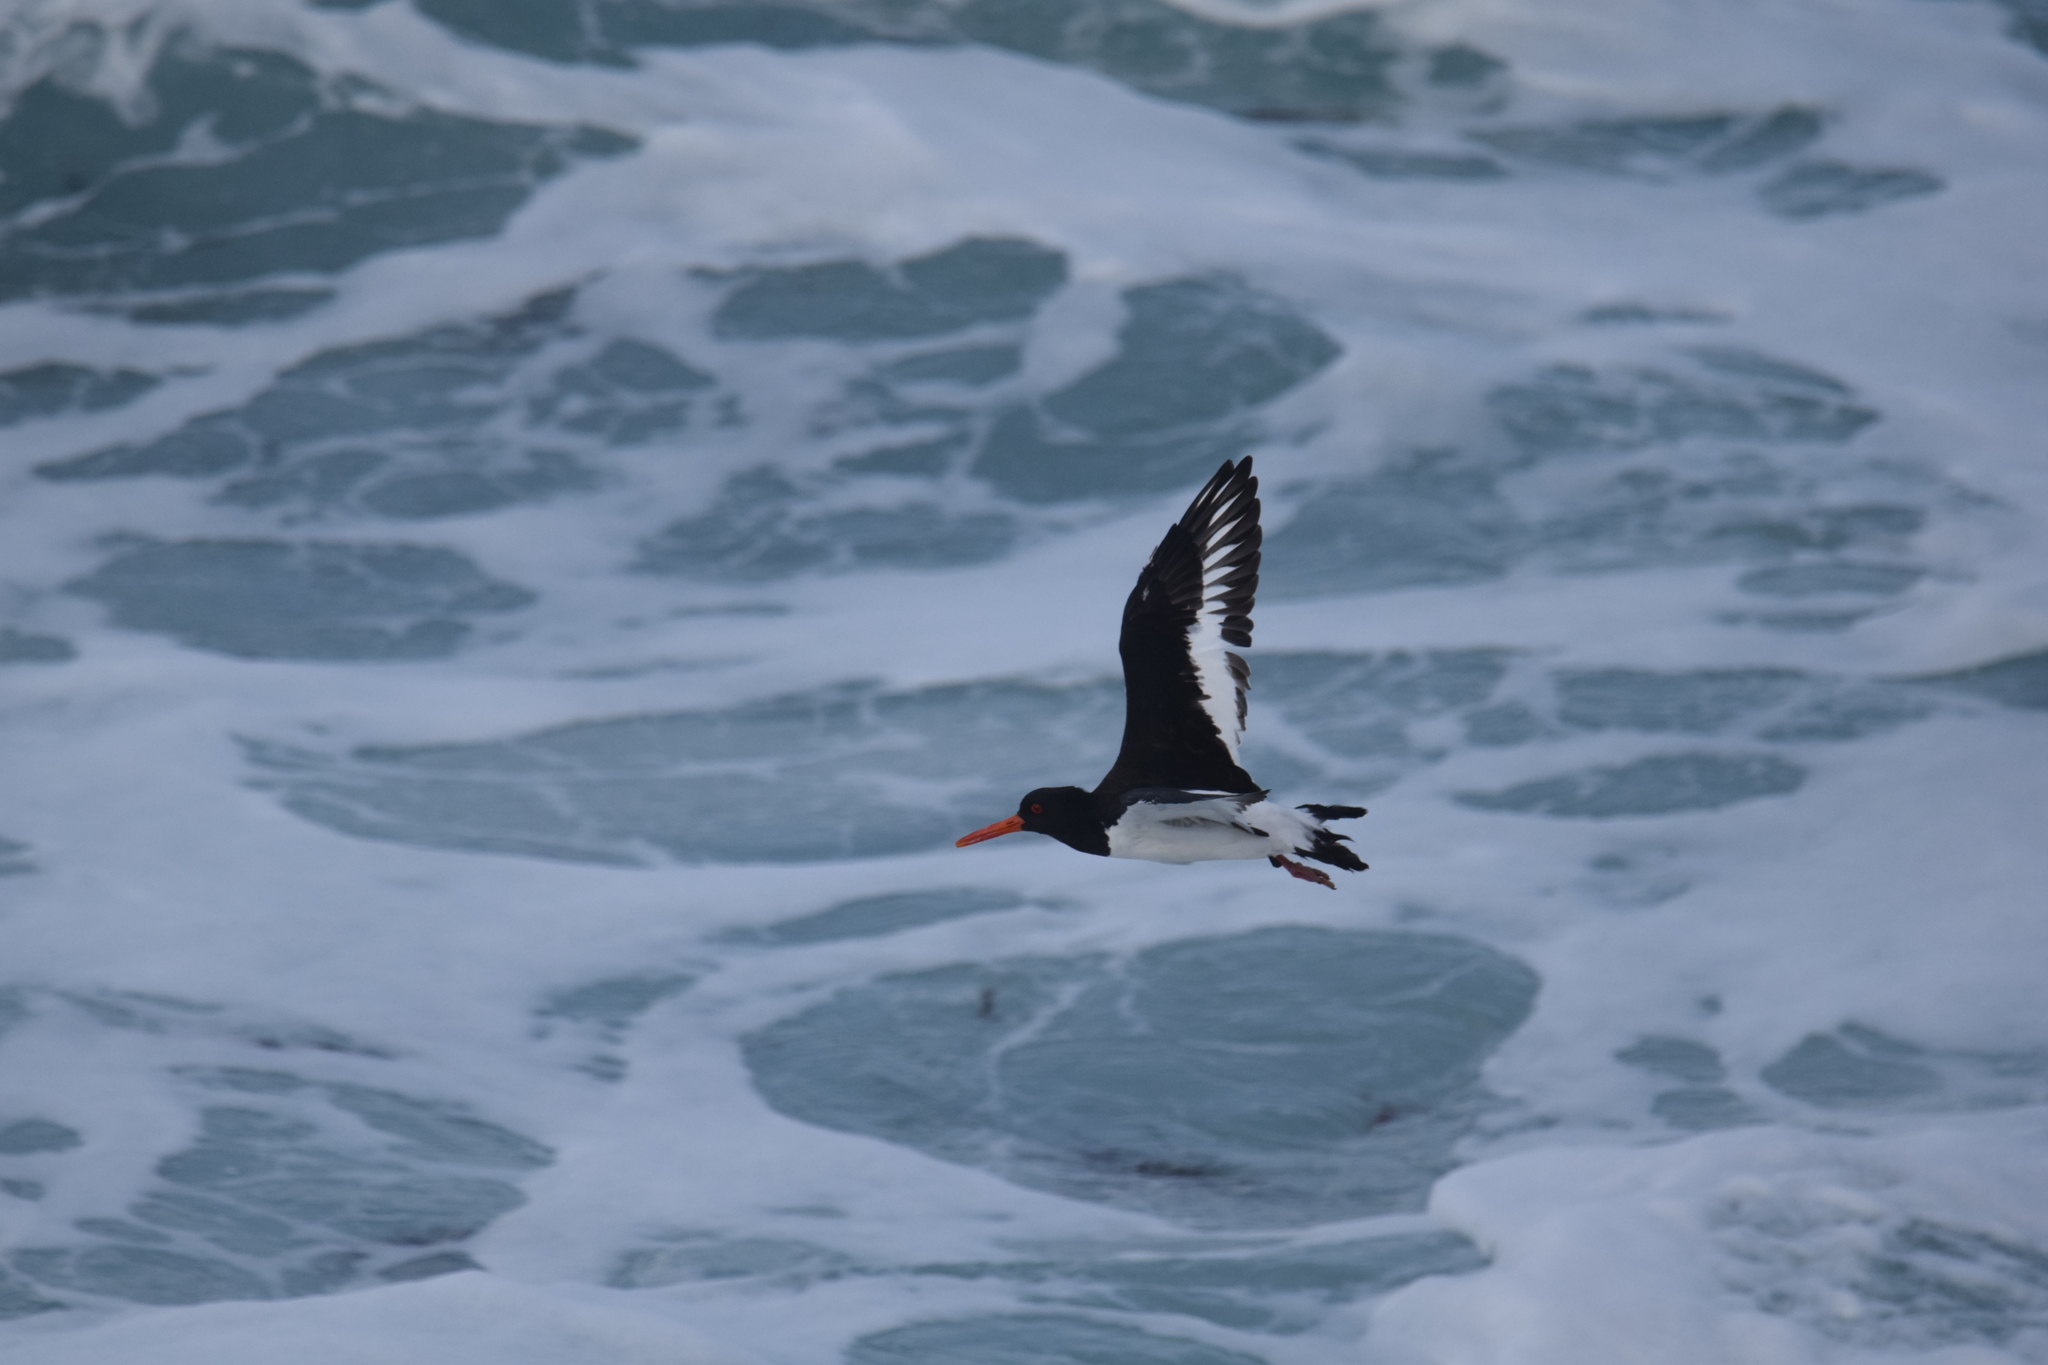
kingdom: Animalia
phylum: Chordata
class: Aves
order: Charadriiformes
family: Haematopodidae
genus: Haematopus
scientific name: Haematopus ostralegus
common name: Eurasian oystercatcher
